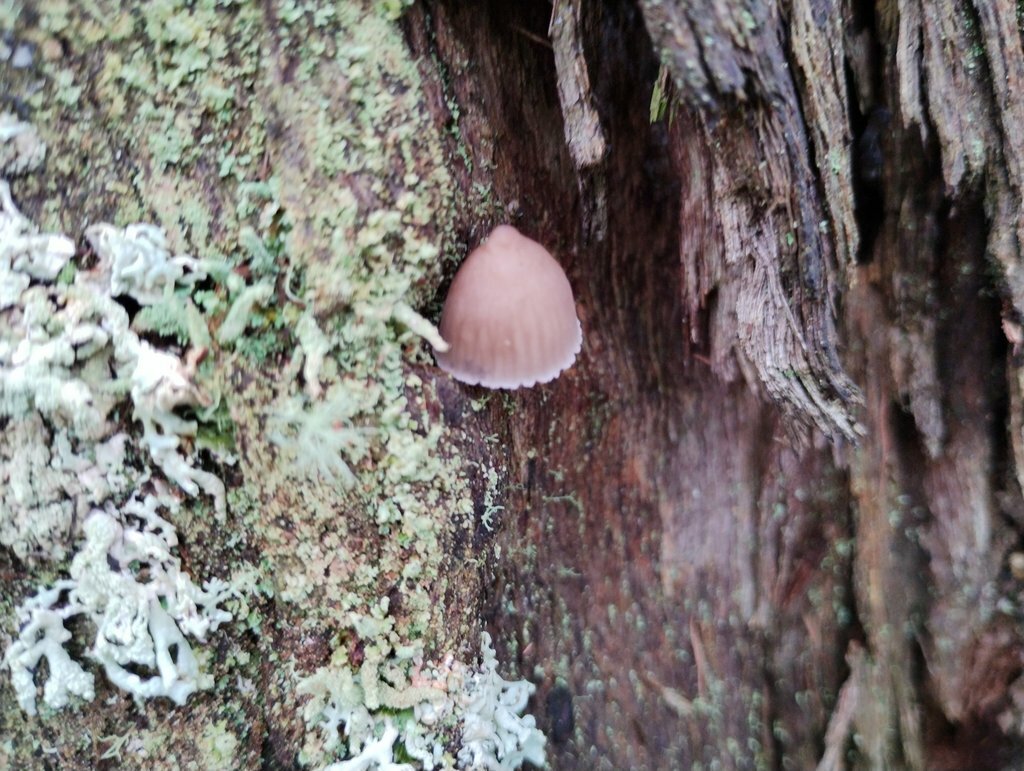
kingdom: Fungi
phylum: Basidiomycota
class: Agaricomycetes
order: Agaricales
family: Mycenaceae
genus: Mycena
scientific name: Mycena subgalericulata
